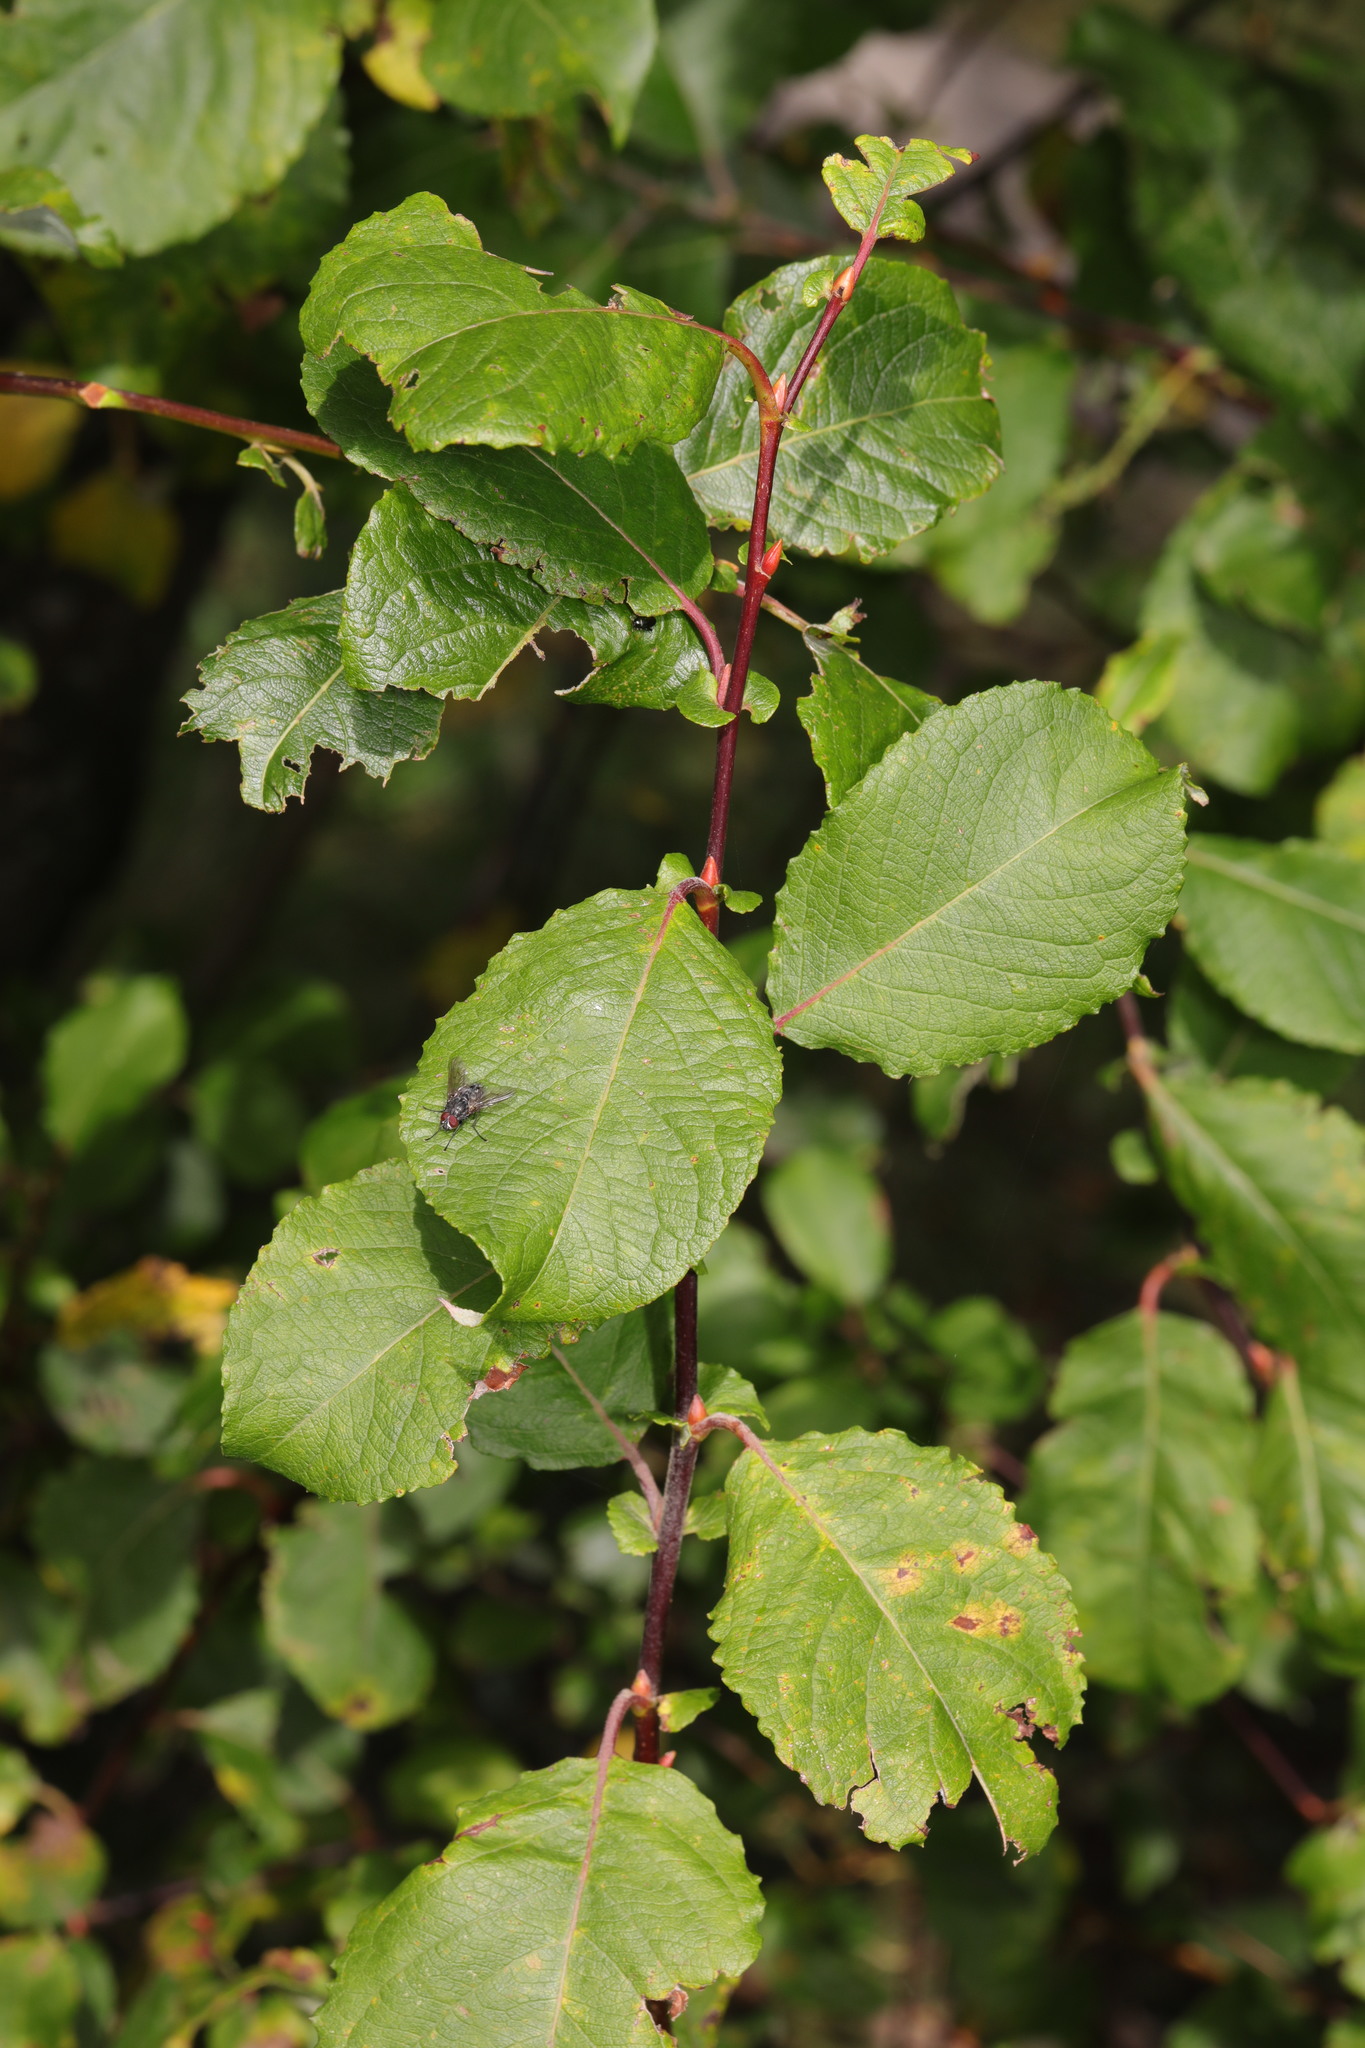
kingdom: Plantae
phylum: Tracheophyta
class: Magnoliopsida
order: Malpighiales
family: Salicaceae
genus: Salix
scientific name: Salix caprea
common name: Goat willow
